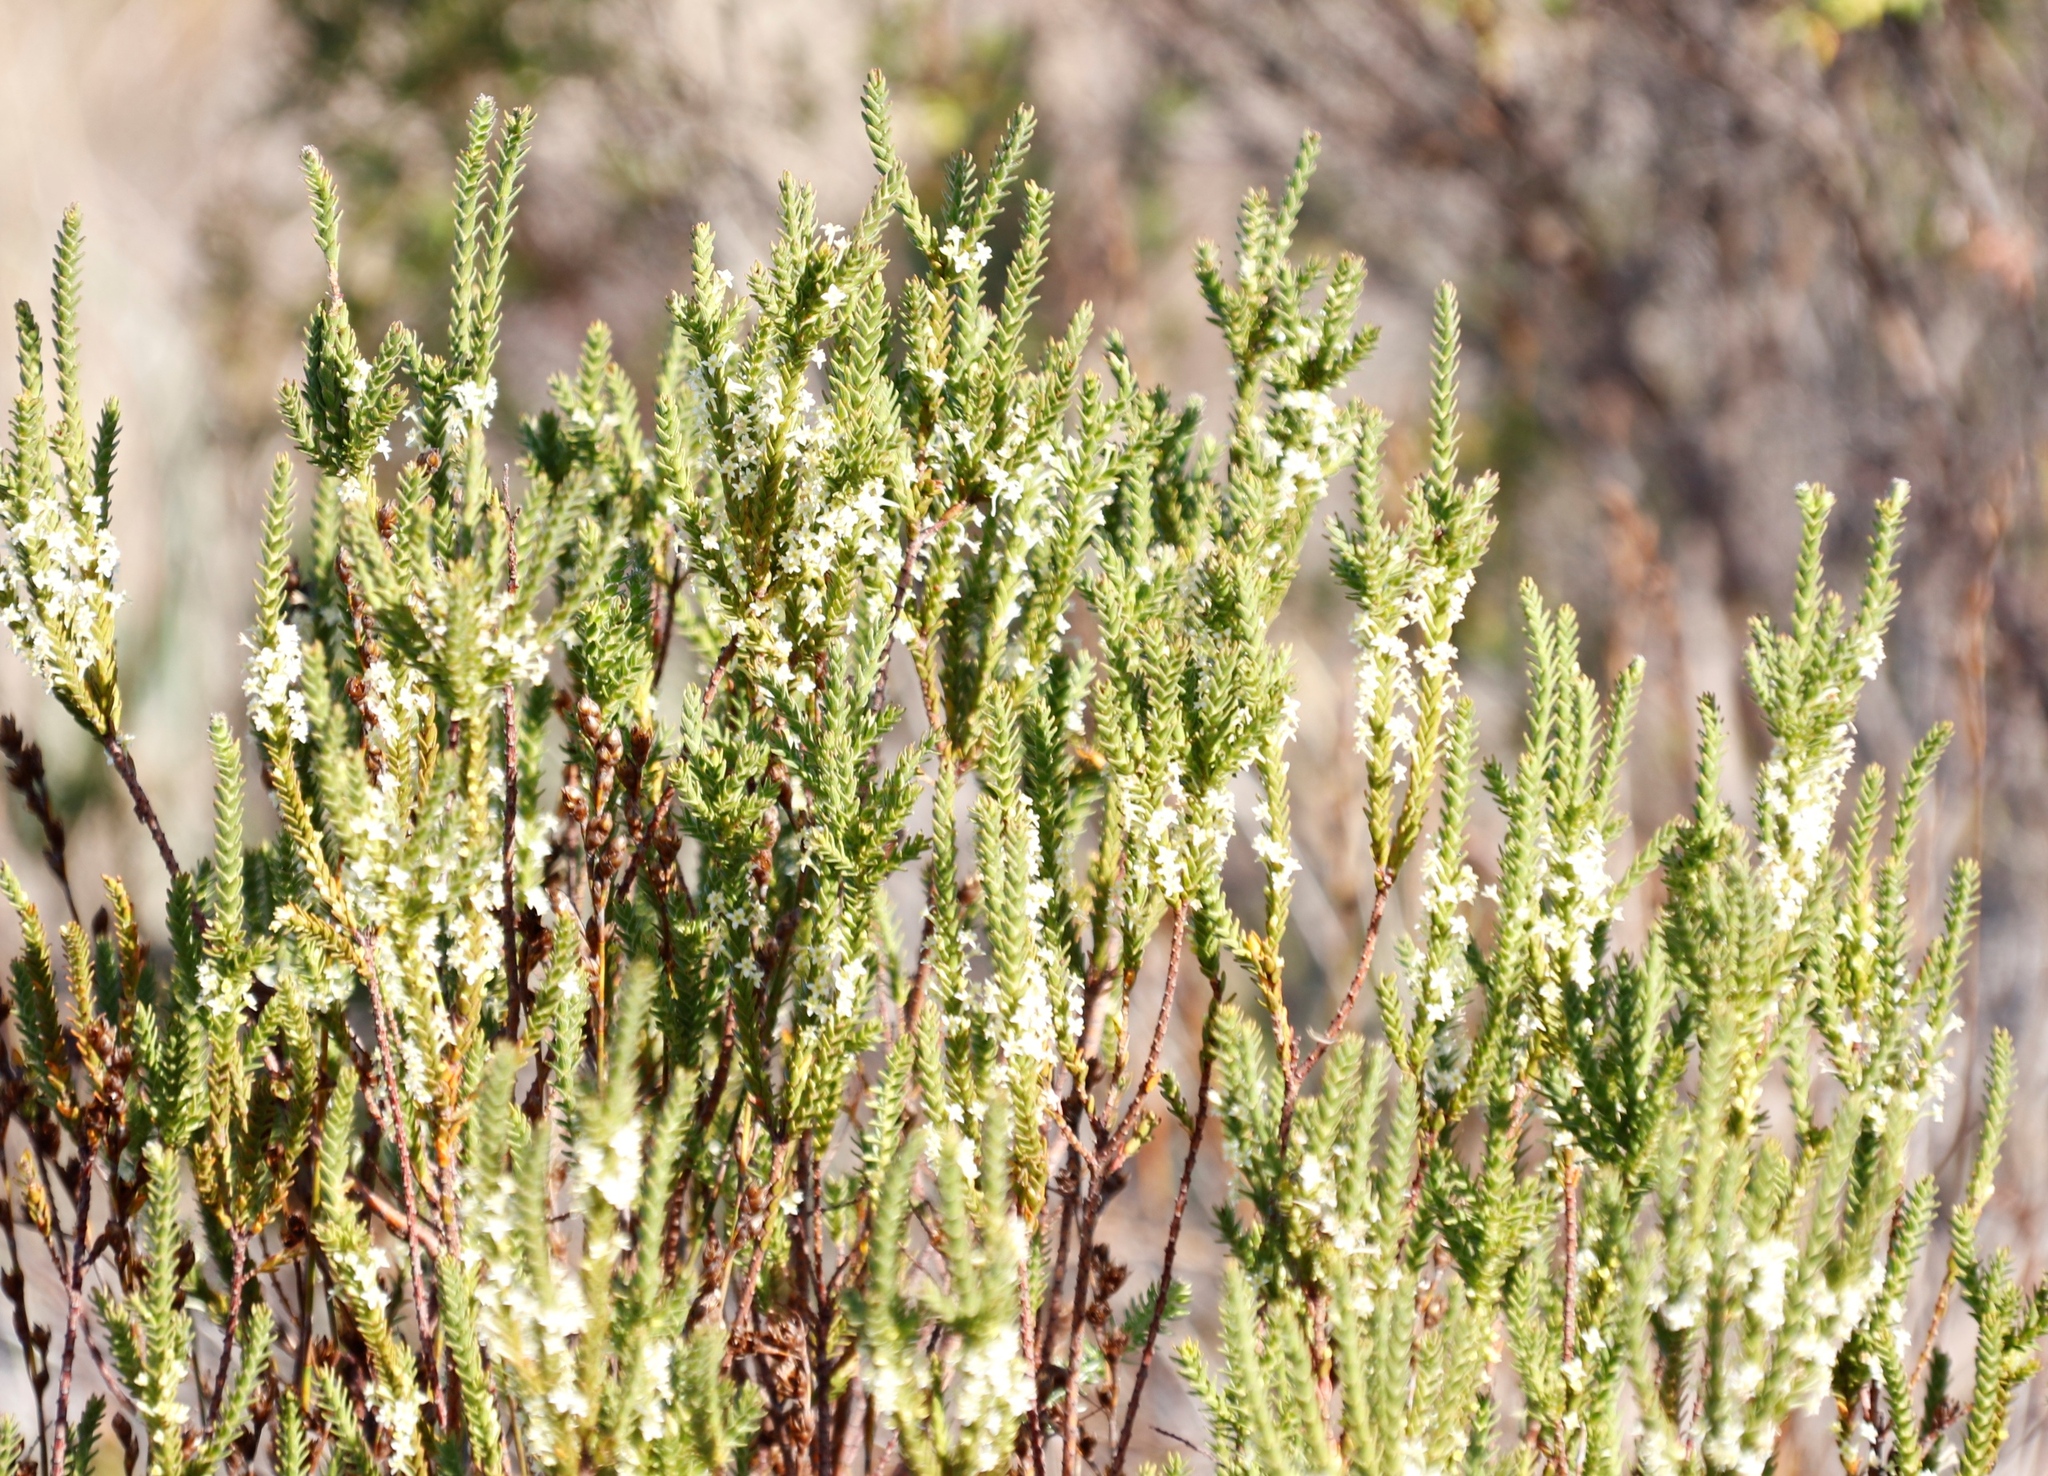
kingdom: Plantae
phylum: Tracheophyta
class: Magnoliopsida
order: Malvales
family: Thymelaeaceae
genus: Struthiola
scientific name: Struthiola striata
